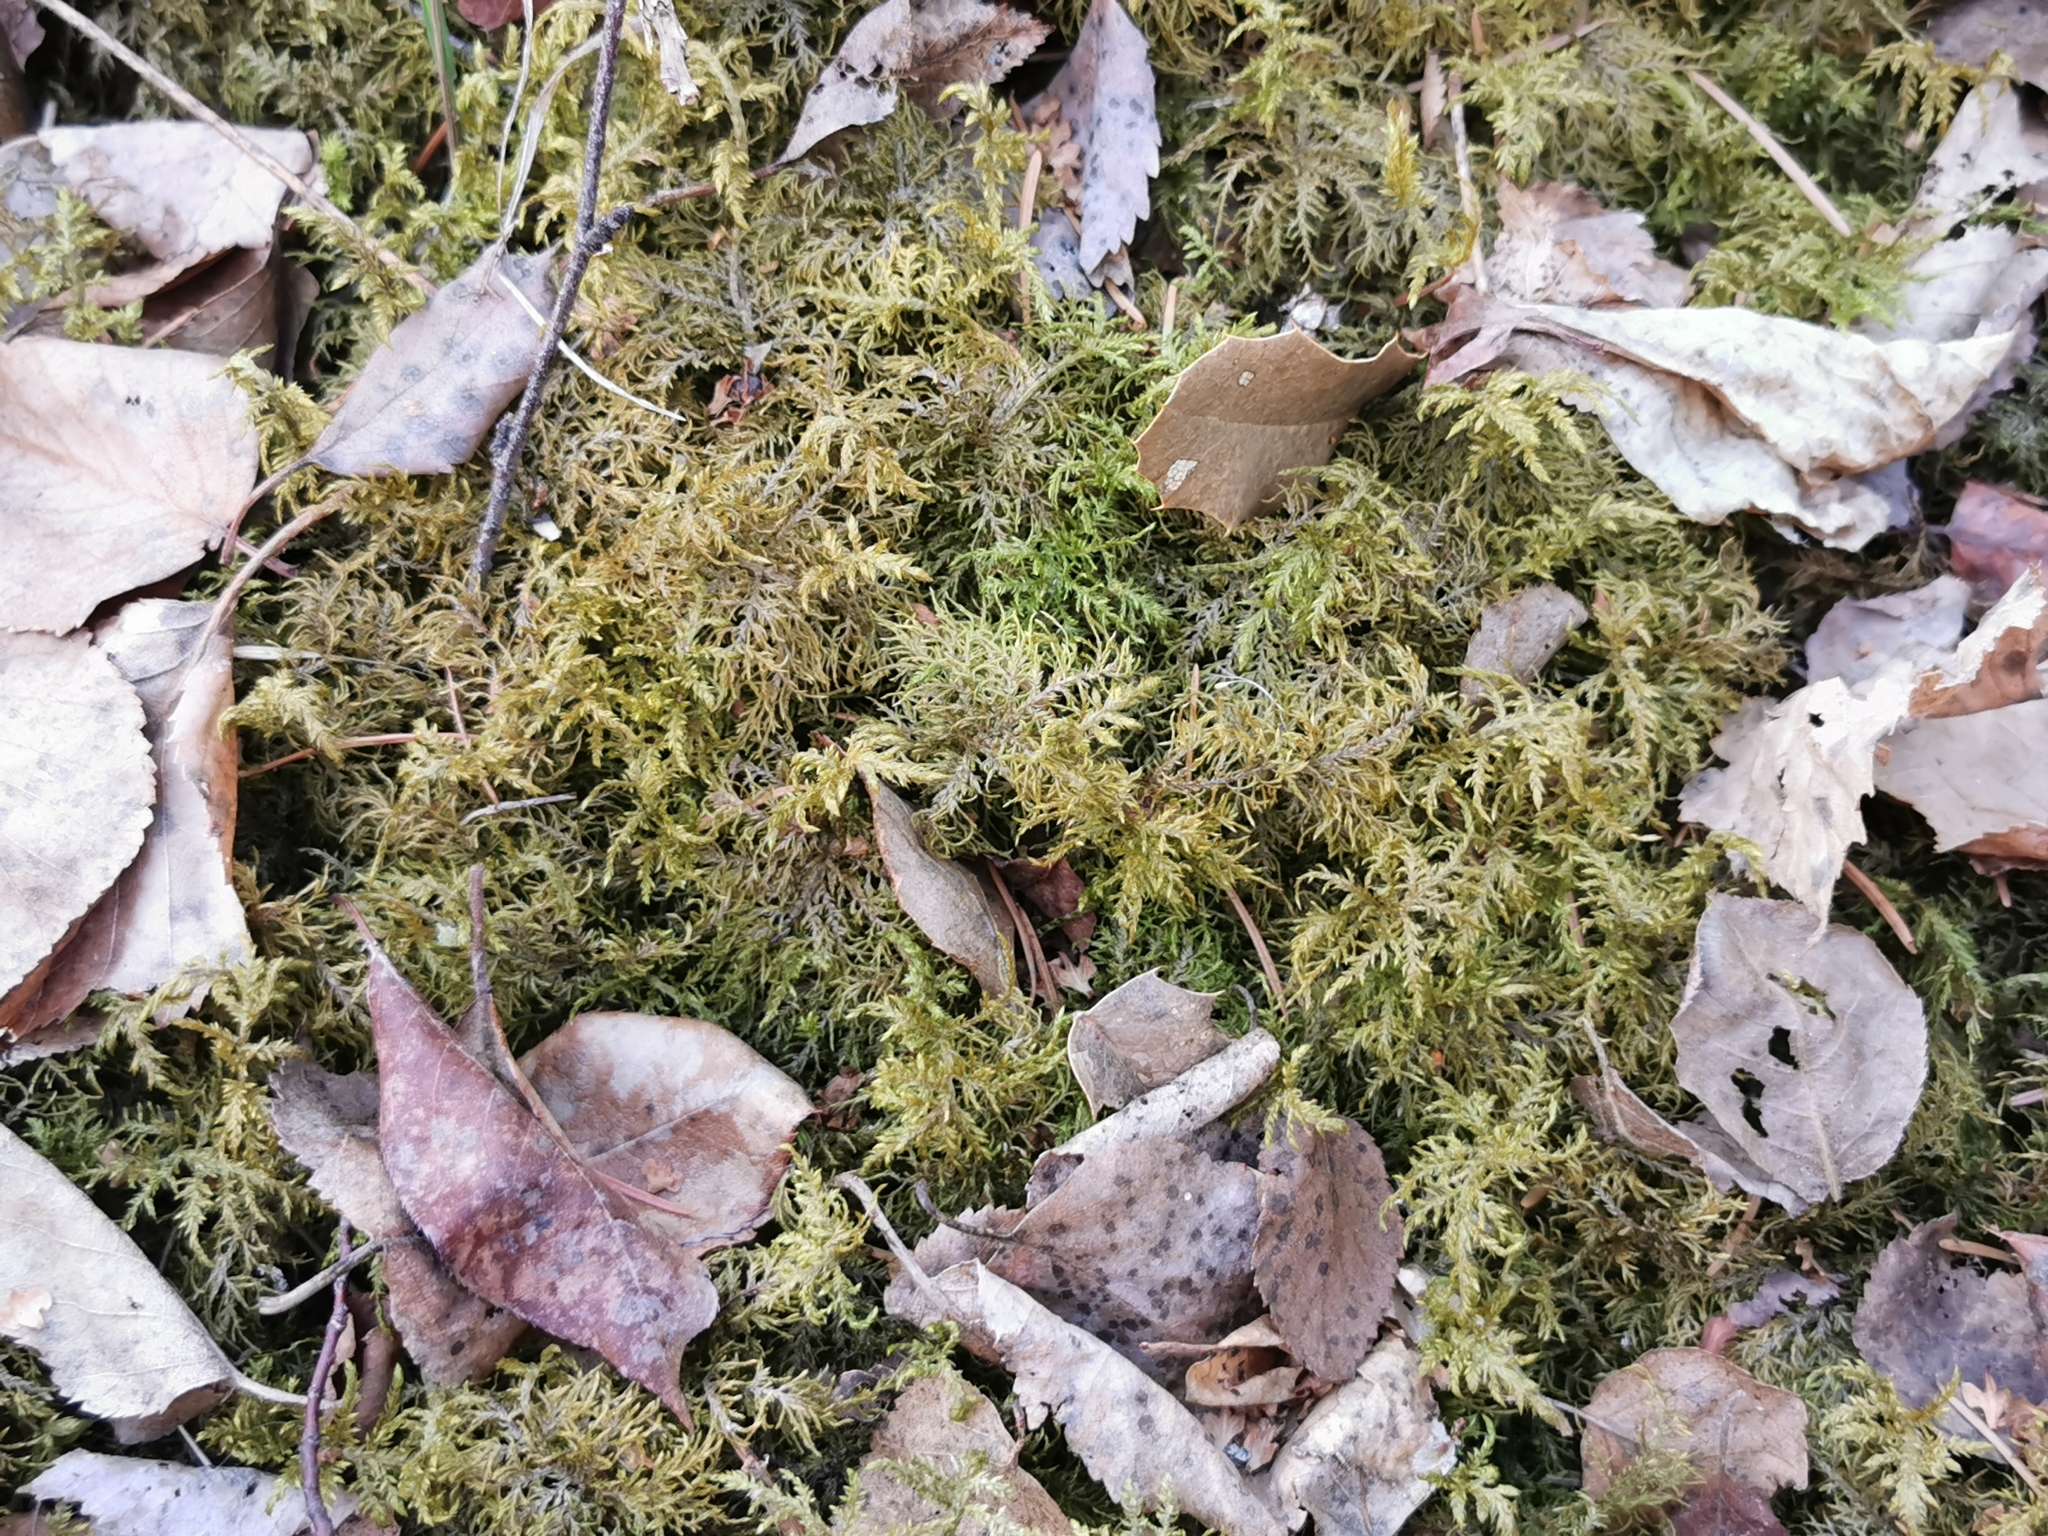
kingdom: Plantae
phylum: Bryophyta
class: Bryopsida
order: Hypnales
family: Hylocomiaceae
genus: Hylocomium
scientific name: Hylocomium splendens
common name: Stairstep moss
